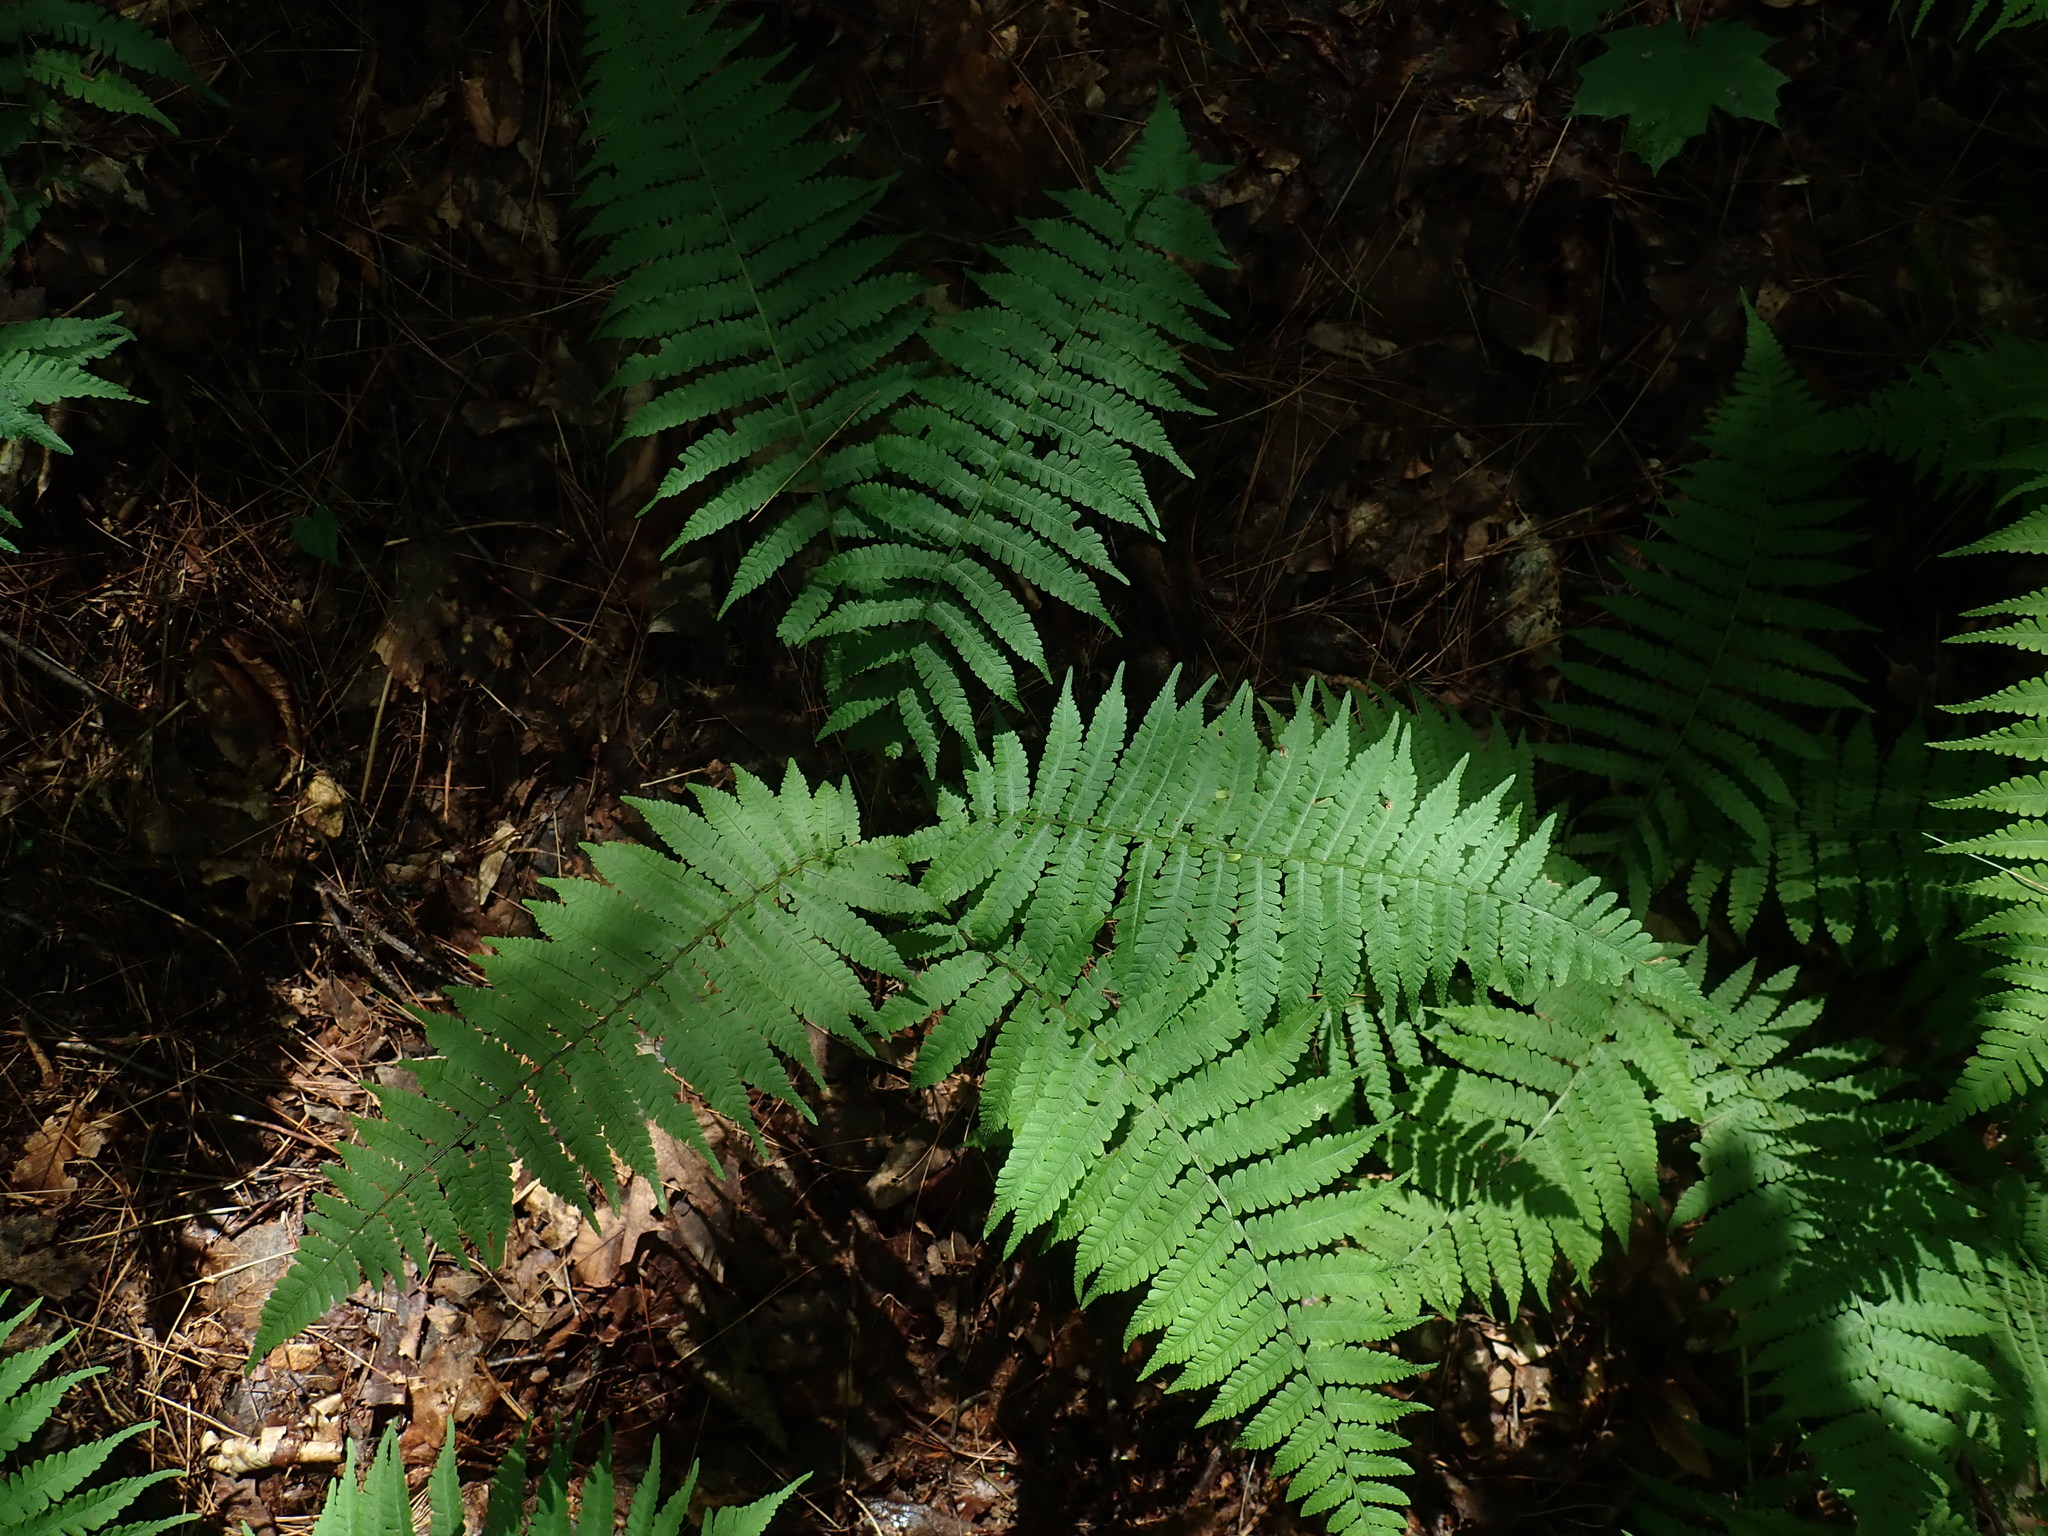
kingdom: Plantae
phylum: Tracheophyta
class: Polypodiopsida
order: Polypodiales
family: Athyriaceae
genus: Deparia
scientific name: Deparia acrostichoides
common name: Silver false spleenwort
